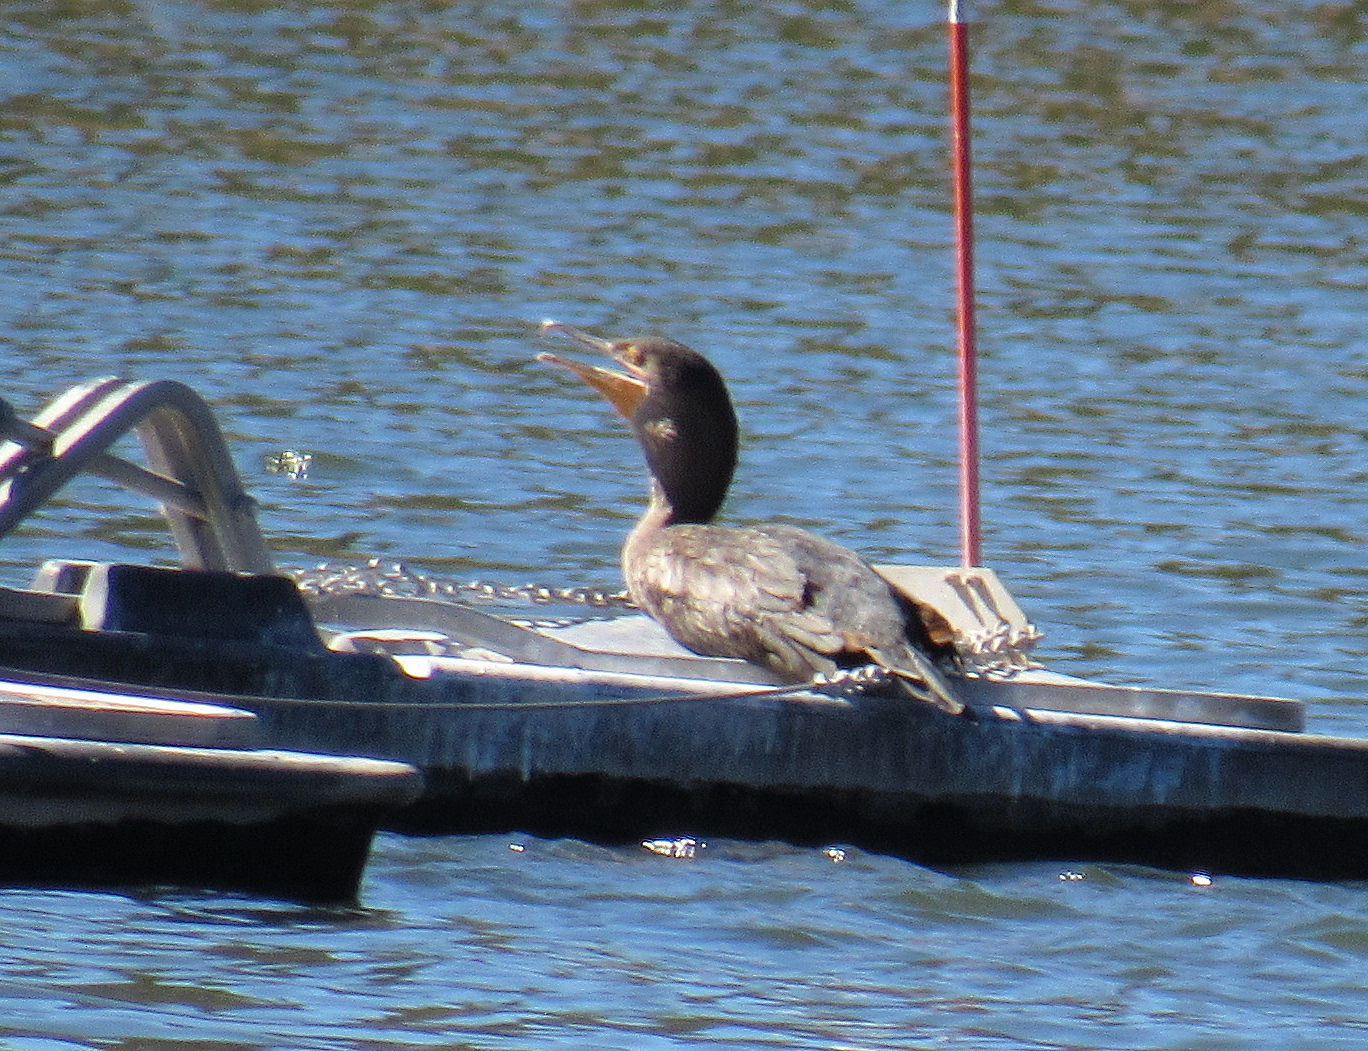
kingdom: Animalia
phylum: Chordata
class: Aves
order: Suliformes
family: Phalacrocoracidae
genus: Phalacrocorax
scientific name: Phalacrocorax auritus
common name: Double-crested cormorant
